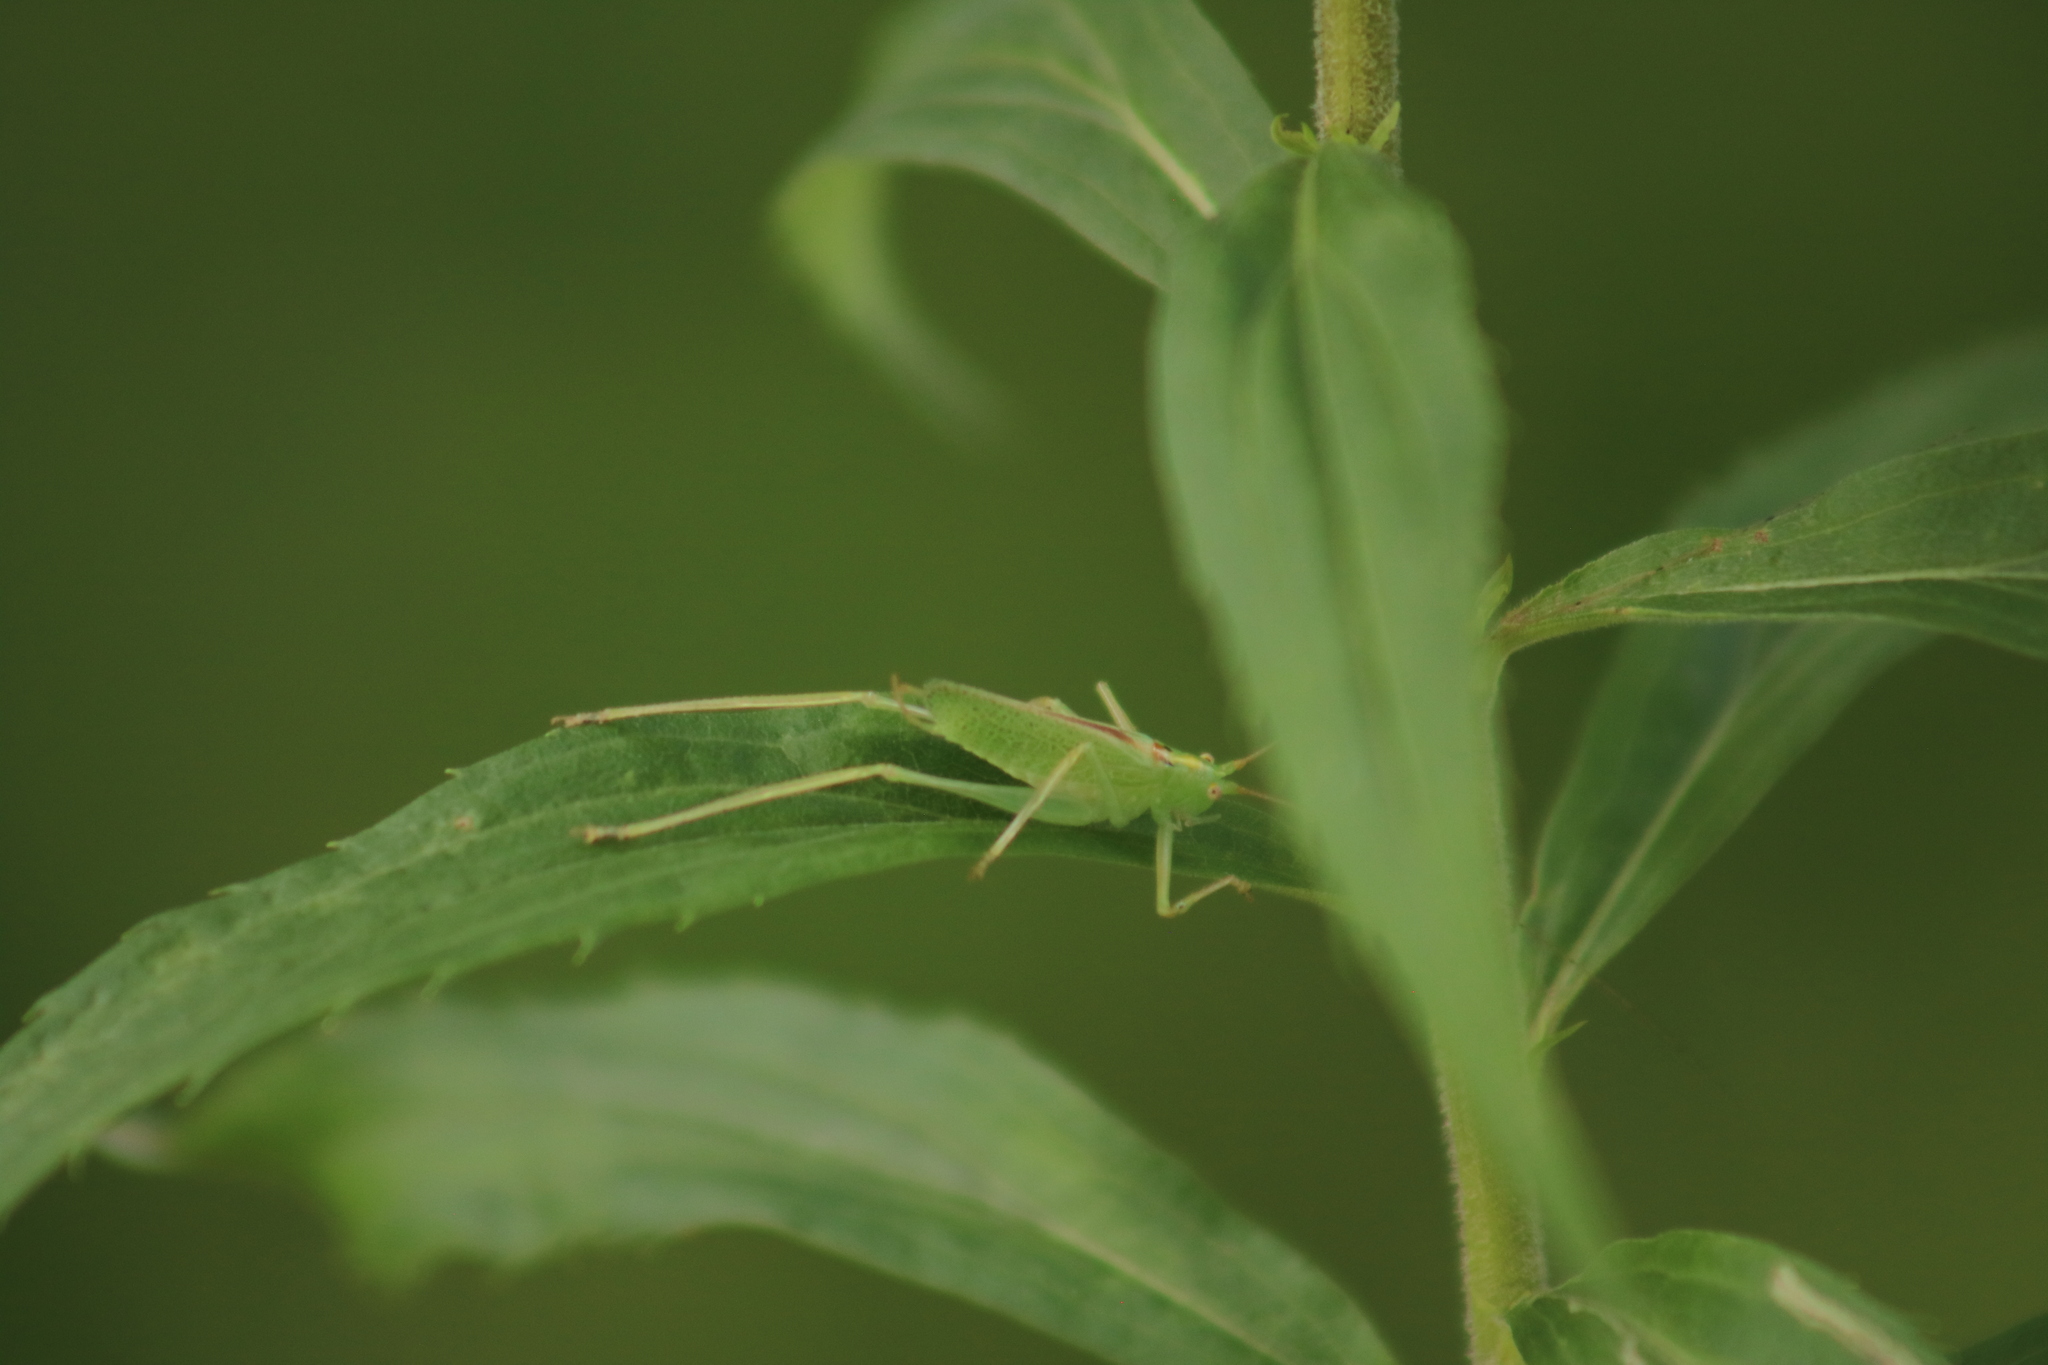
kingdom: Animalia
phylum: Arthropoda
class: Insecta
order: Orthoptera
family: Tettigoniidae
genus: Meconema
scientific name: Meconema thalassinum
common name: Oak bush-cricket
